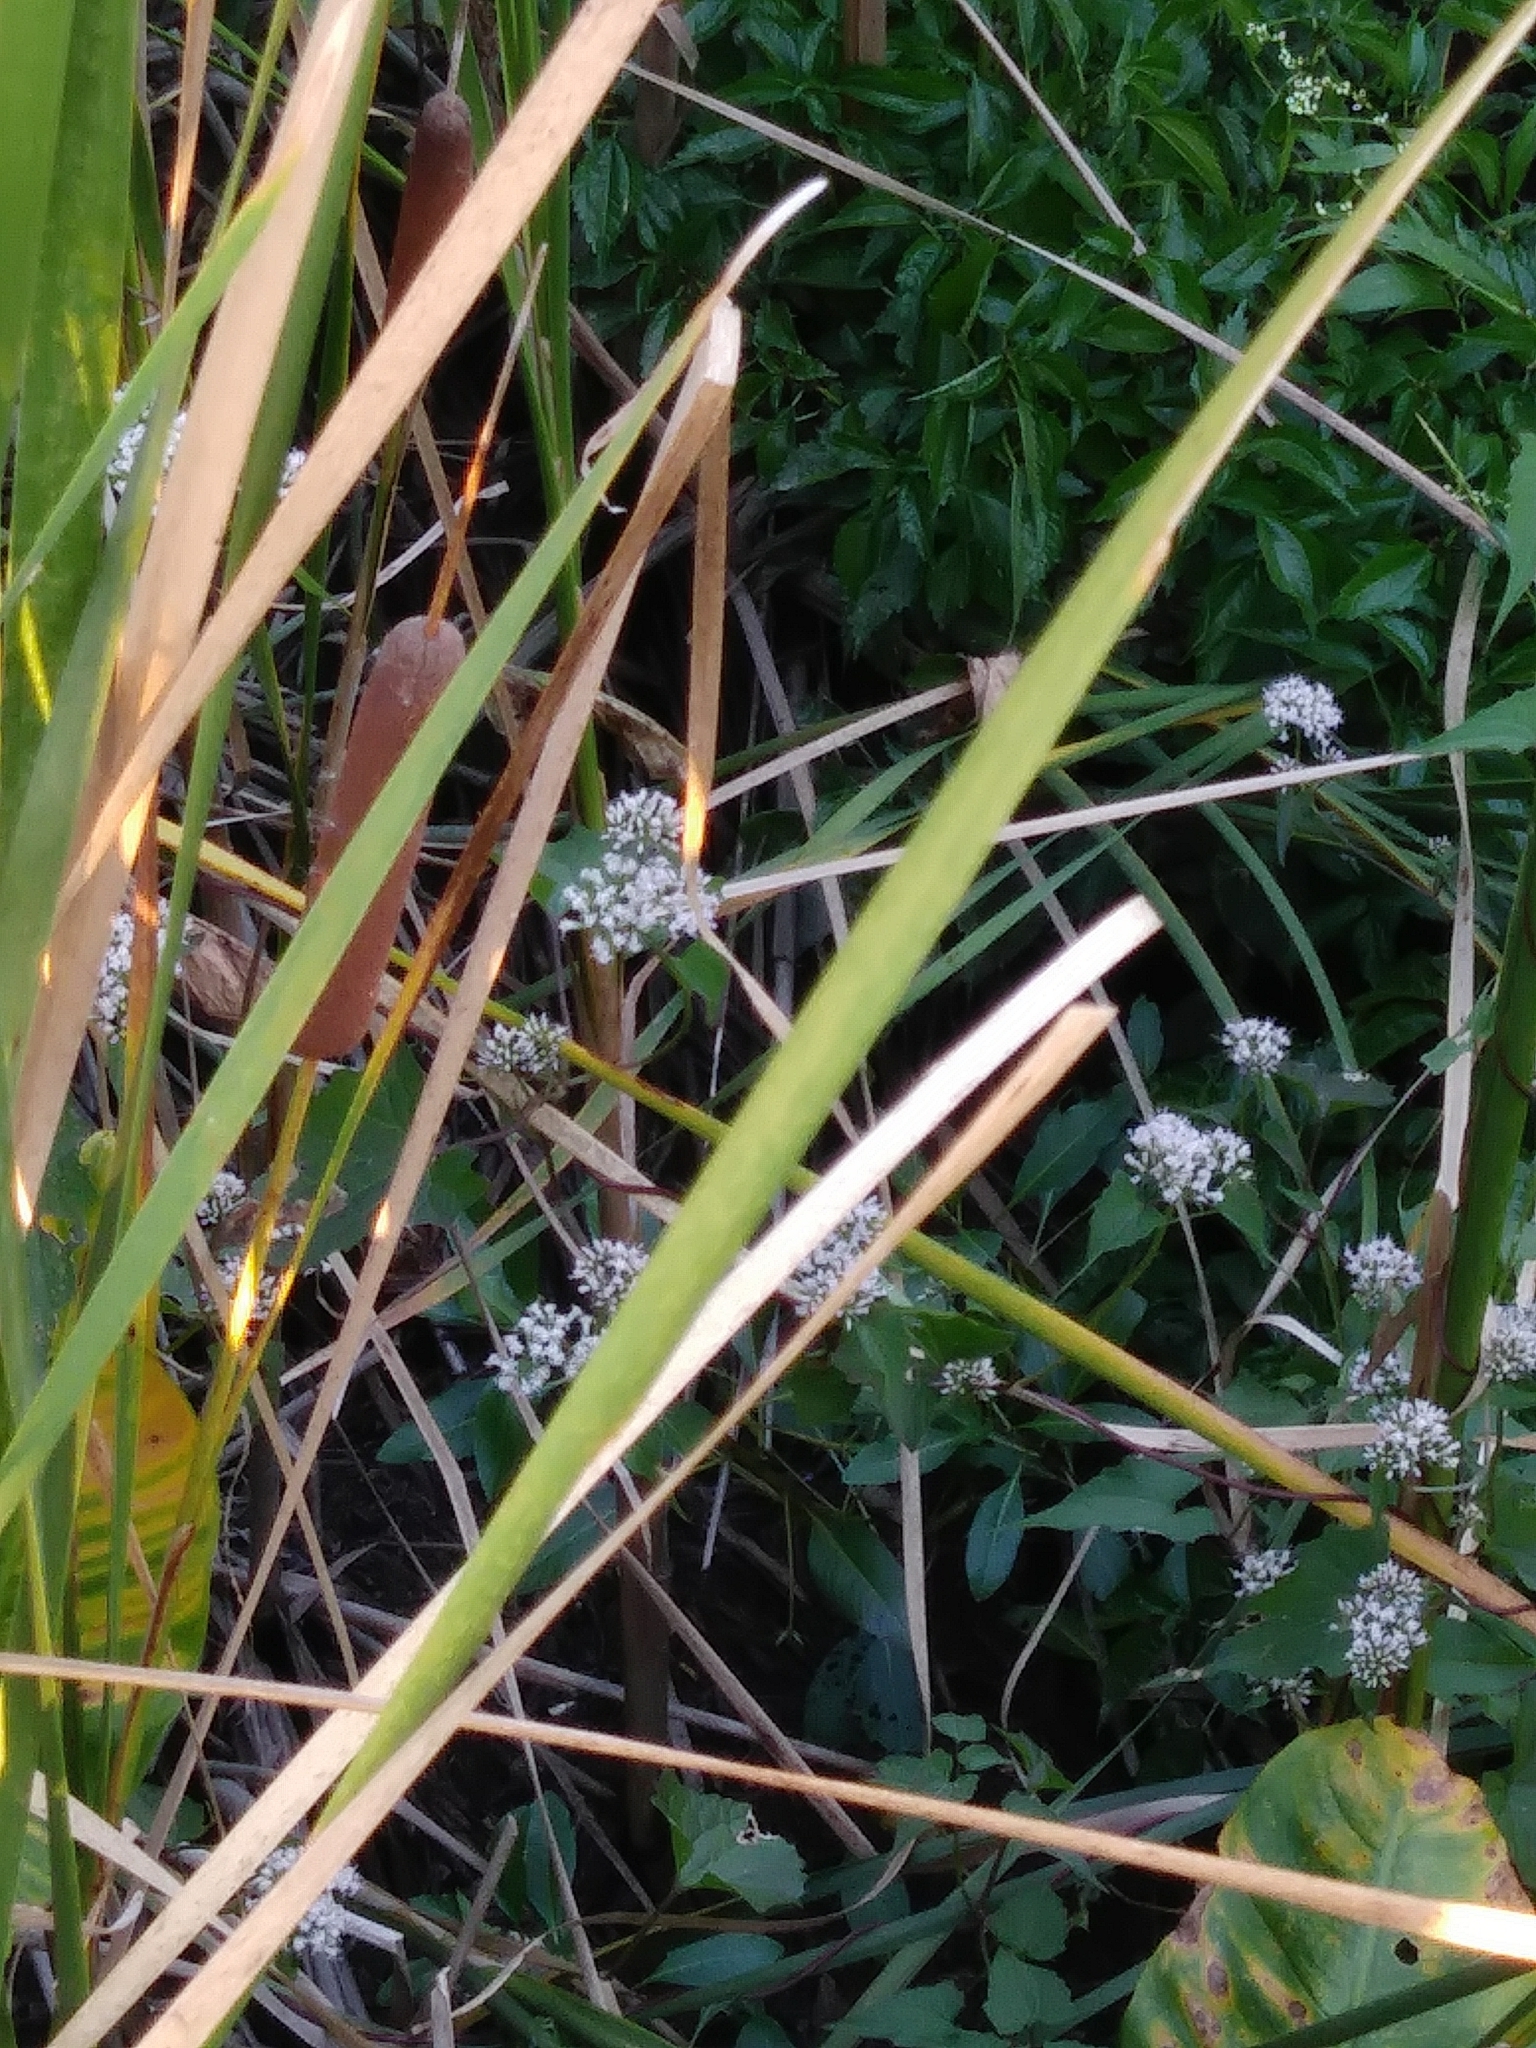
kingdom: Plantae
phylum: Tracheophyta
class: Magnoliopsida
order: Asterales
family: Asteraceae
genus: Mikania
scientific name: Mikania scandens
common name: Climbing hempvine
